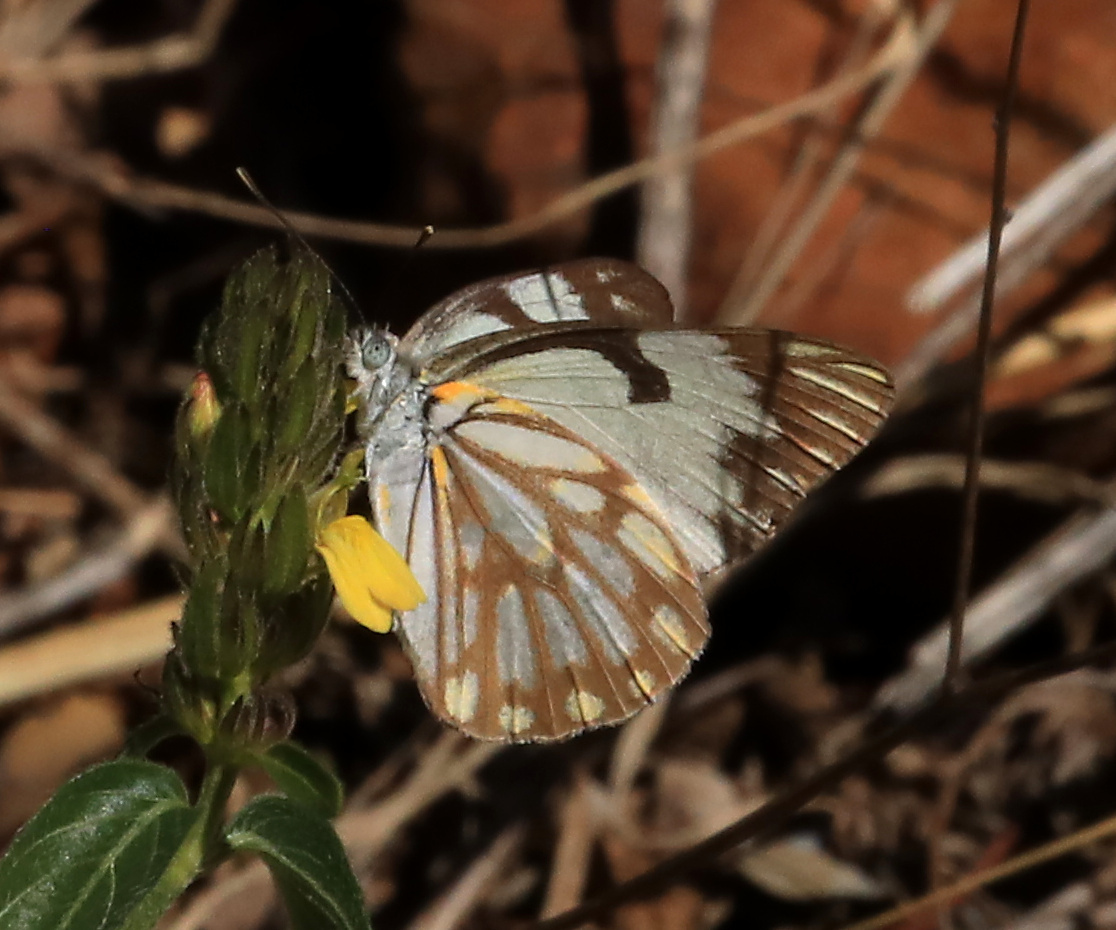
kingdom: Animalia
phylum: Arthropoda
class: Insecta
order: Lepidoptera
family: Pieridae
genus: Belenois
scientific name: Belenois aurota
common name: Brown-veined white
